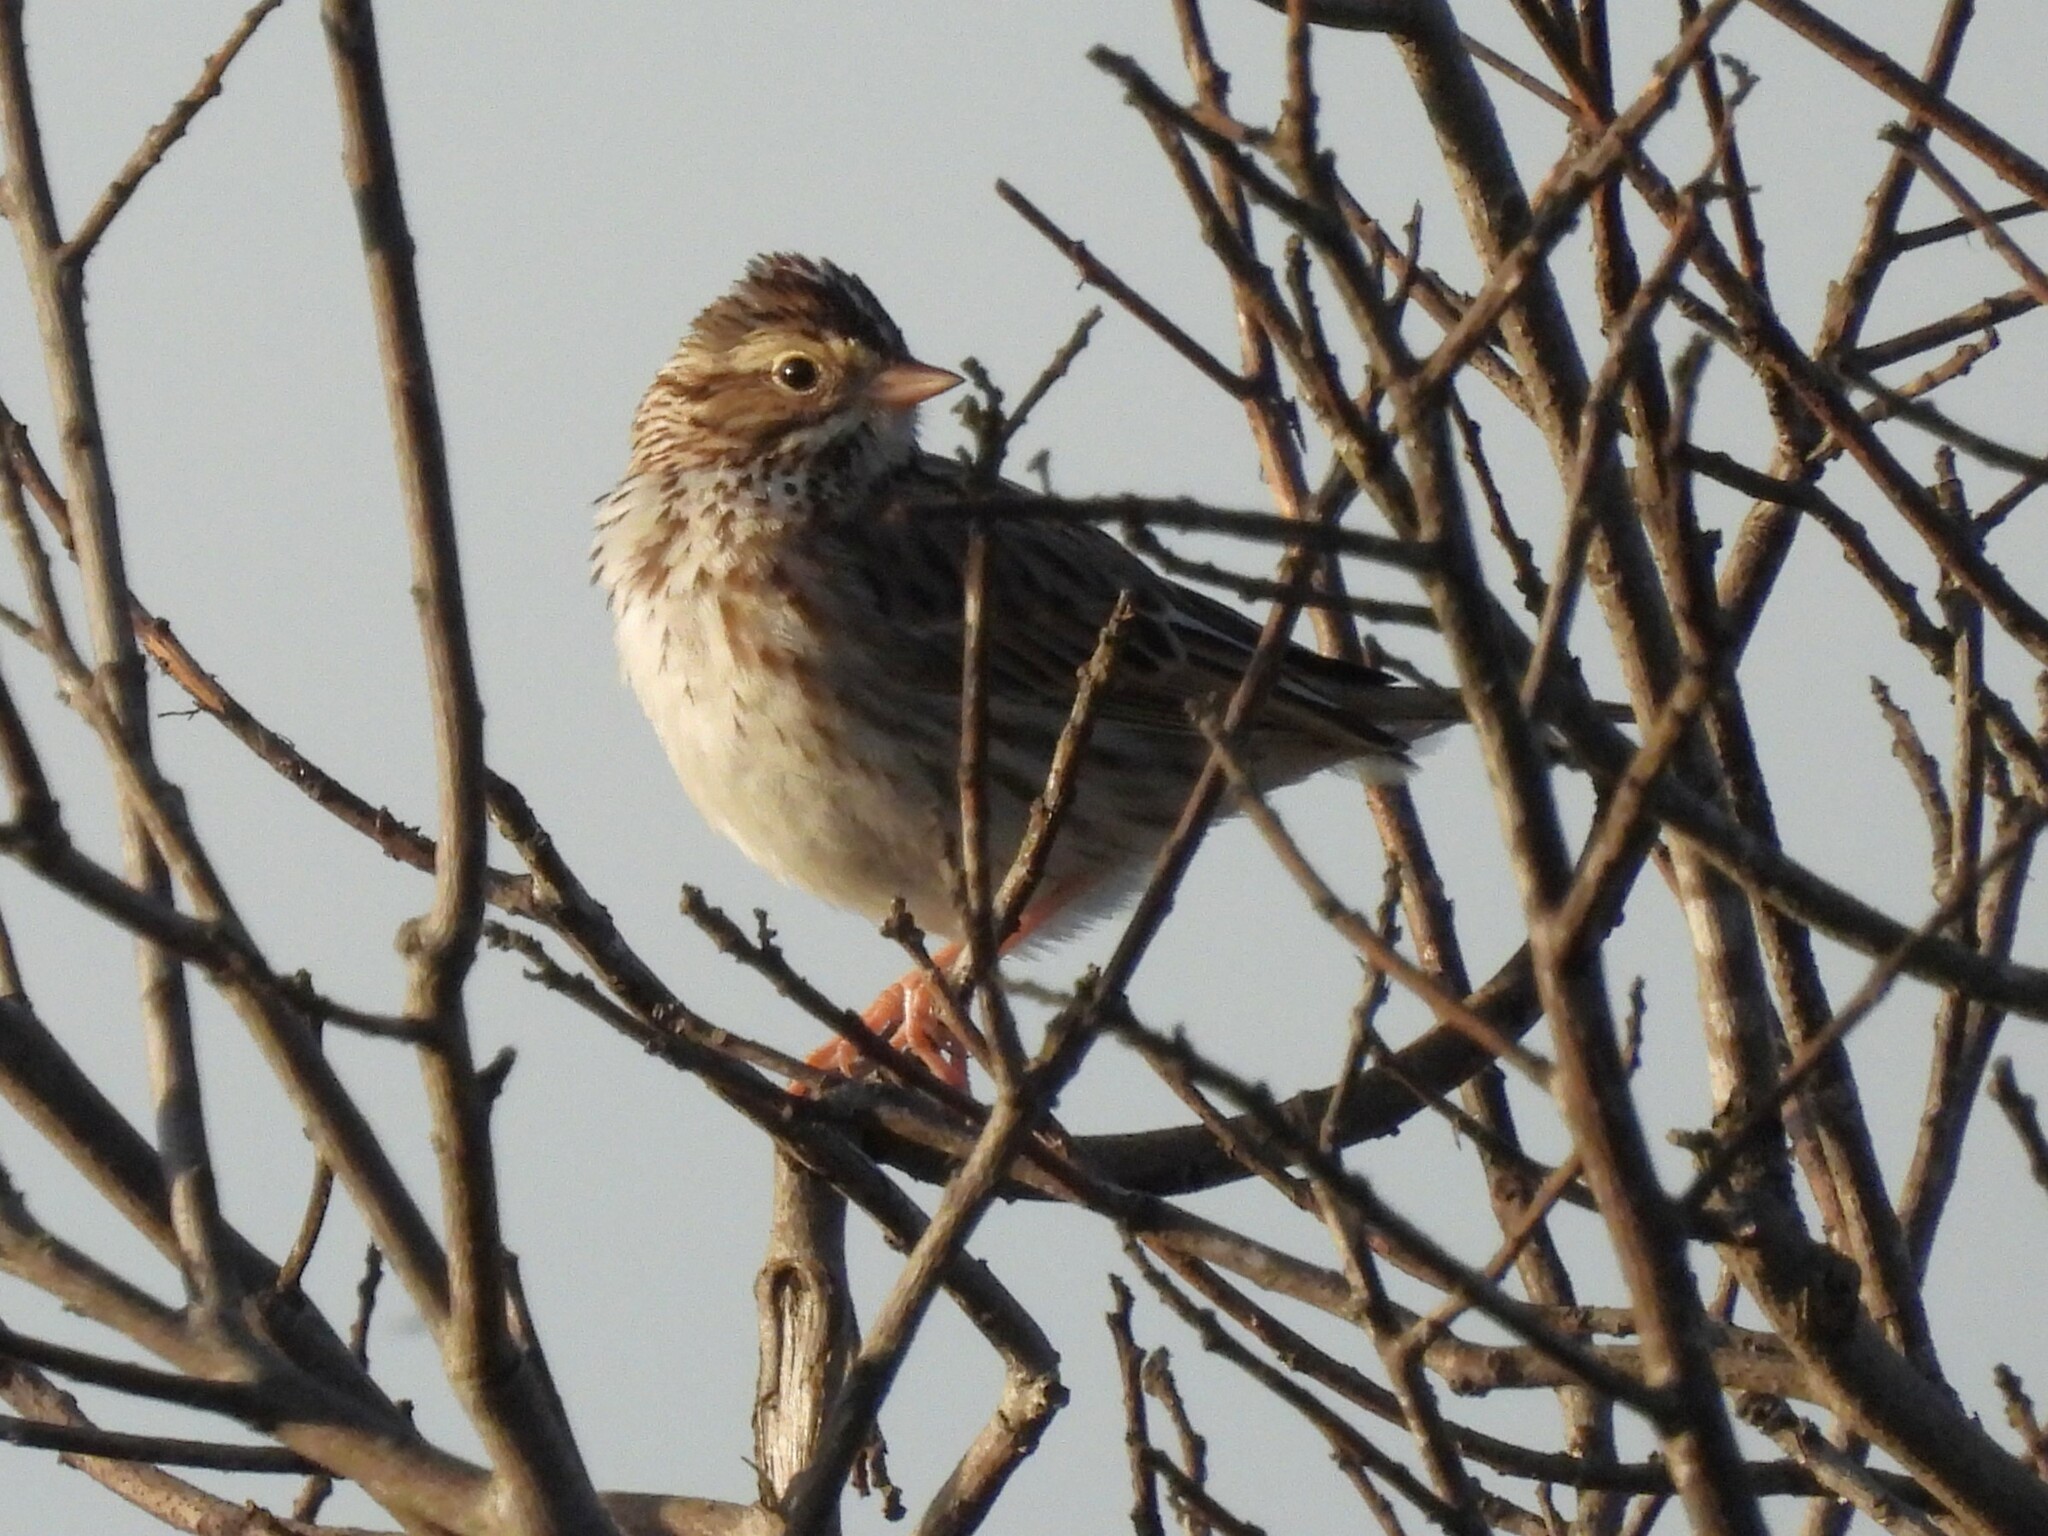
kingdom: Animalia
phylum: Chordata
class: Aves
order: Passeriformes
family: Passerellidae
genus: Passerculus
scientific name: Passerculus sandwichensis
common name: Savannah sparrow
